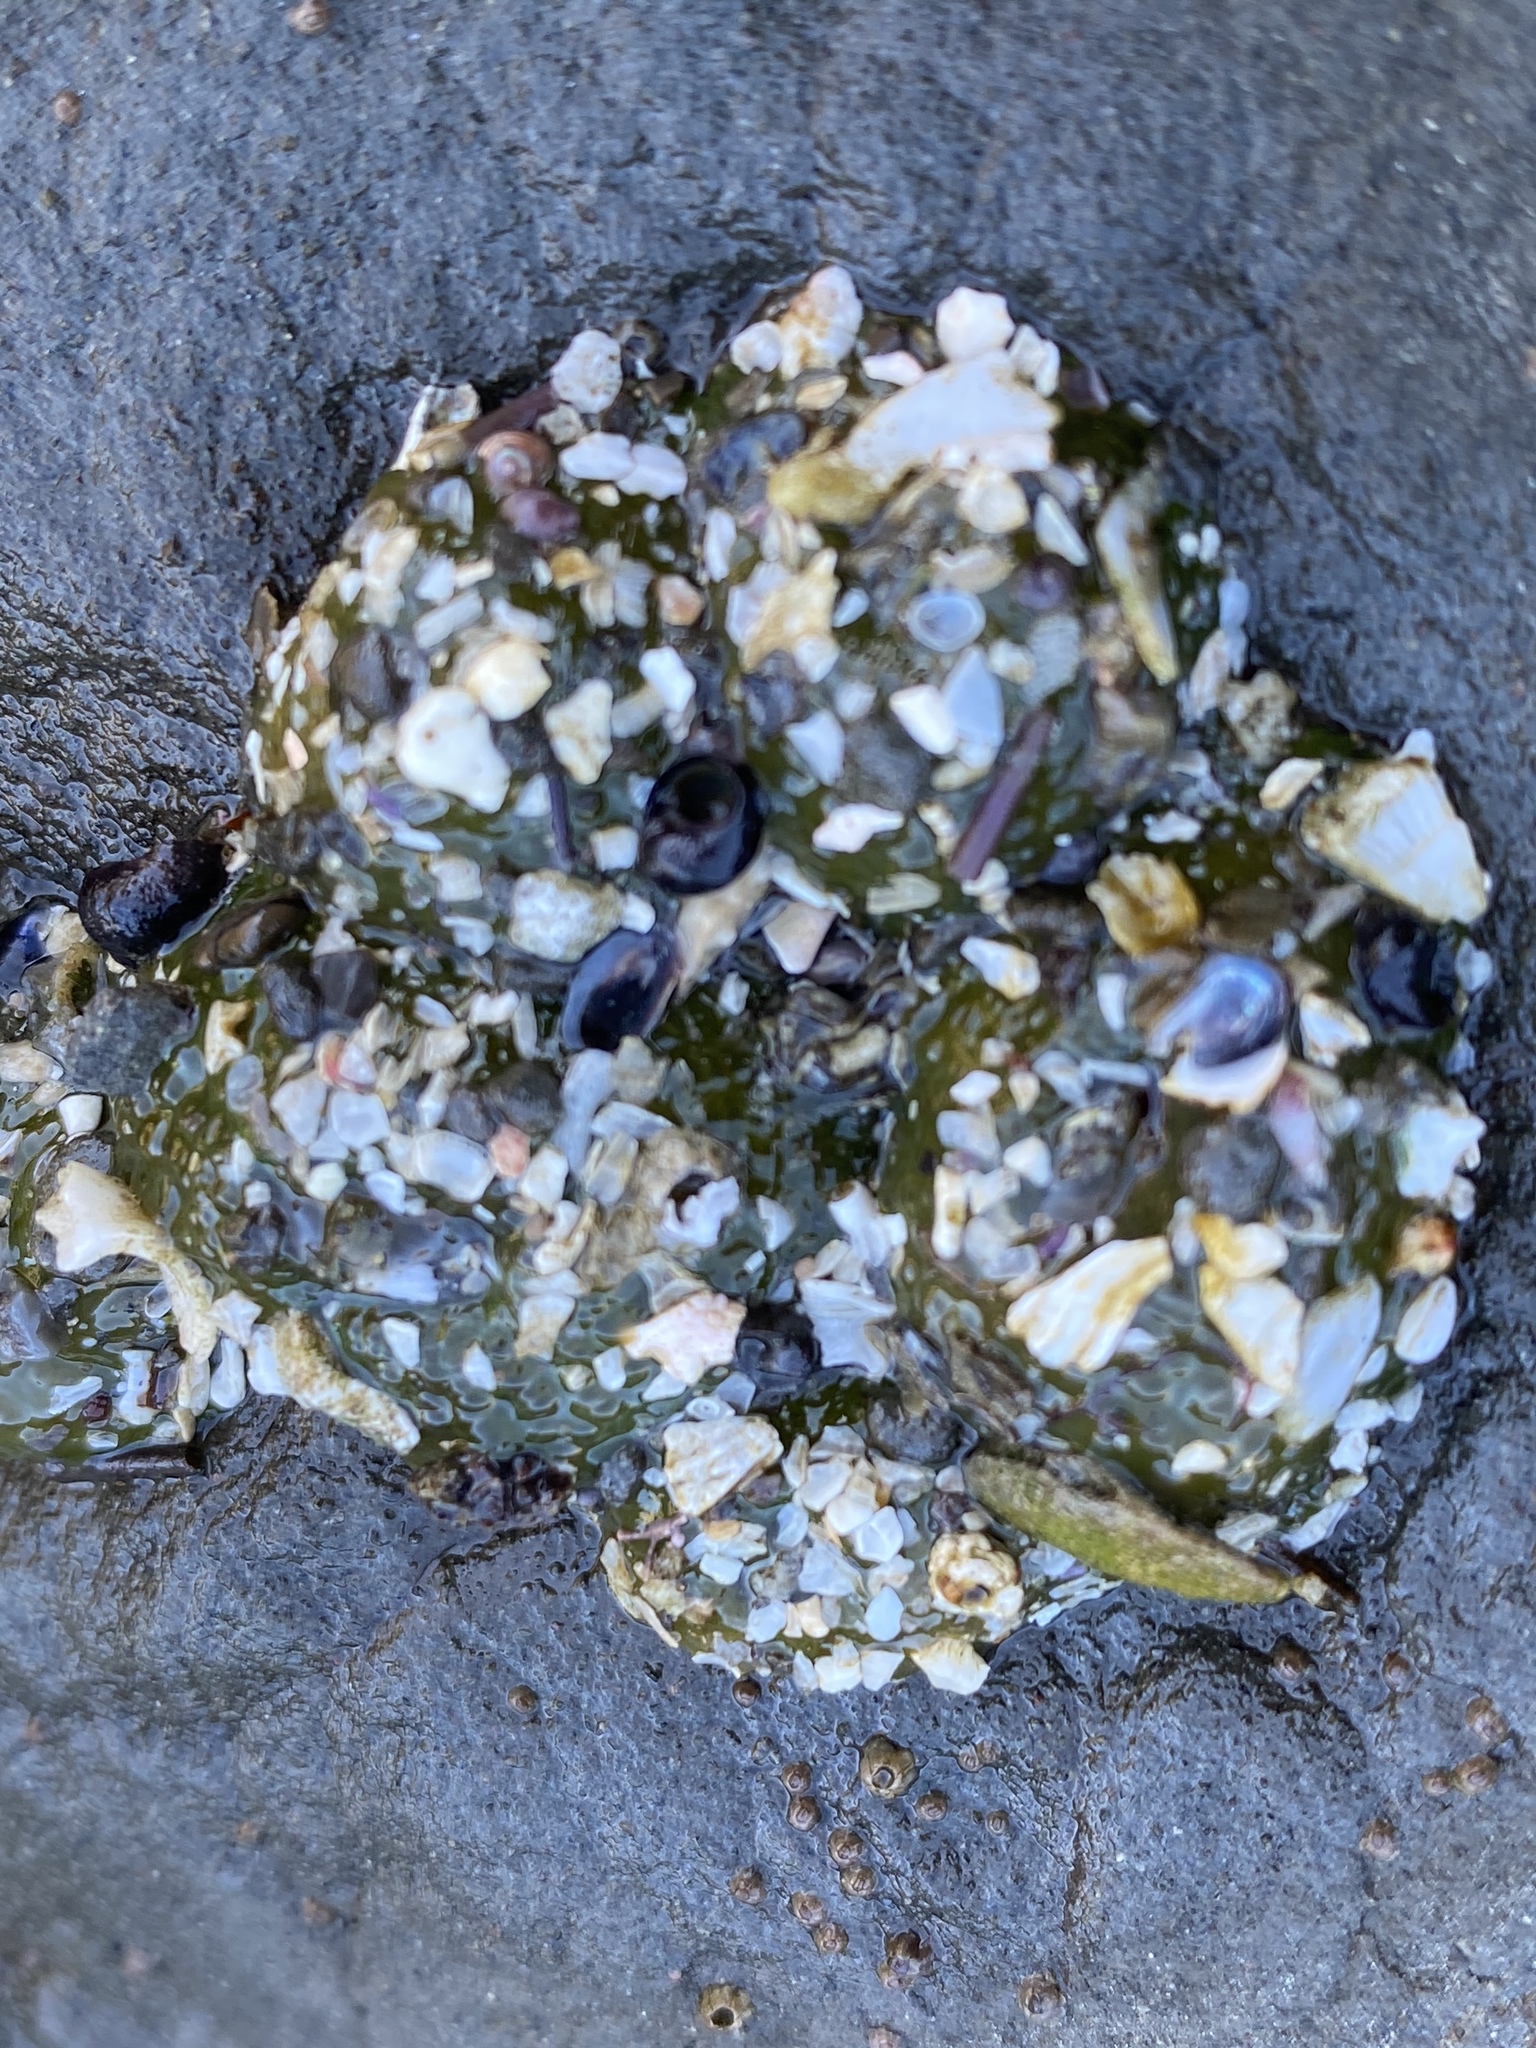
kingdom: Animalia
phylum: Cnidaria
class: Anthozoa
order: Actiniaria
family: Actiniidae
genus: Anthopleura
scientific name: Anthopleura elegantissima
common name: Clonal anemone
